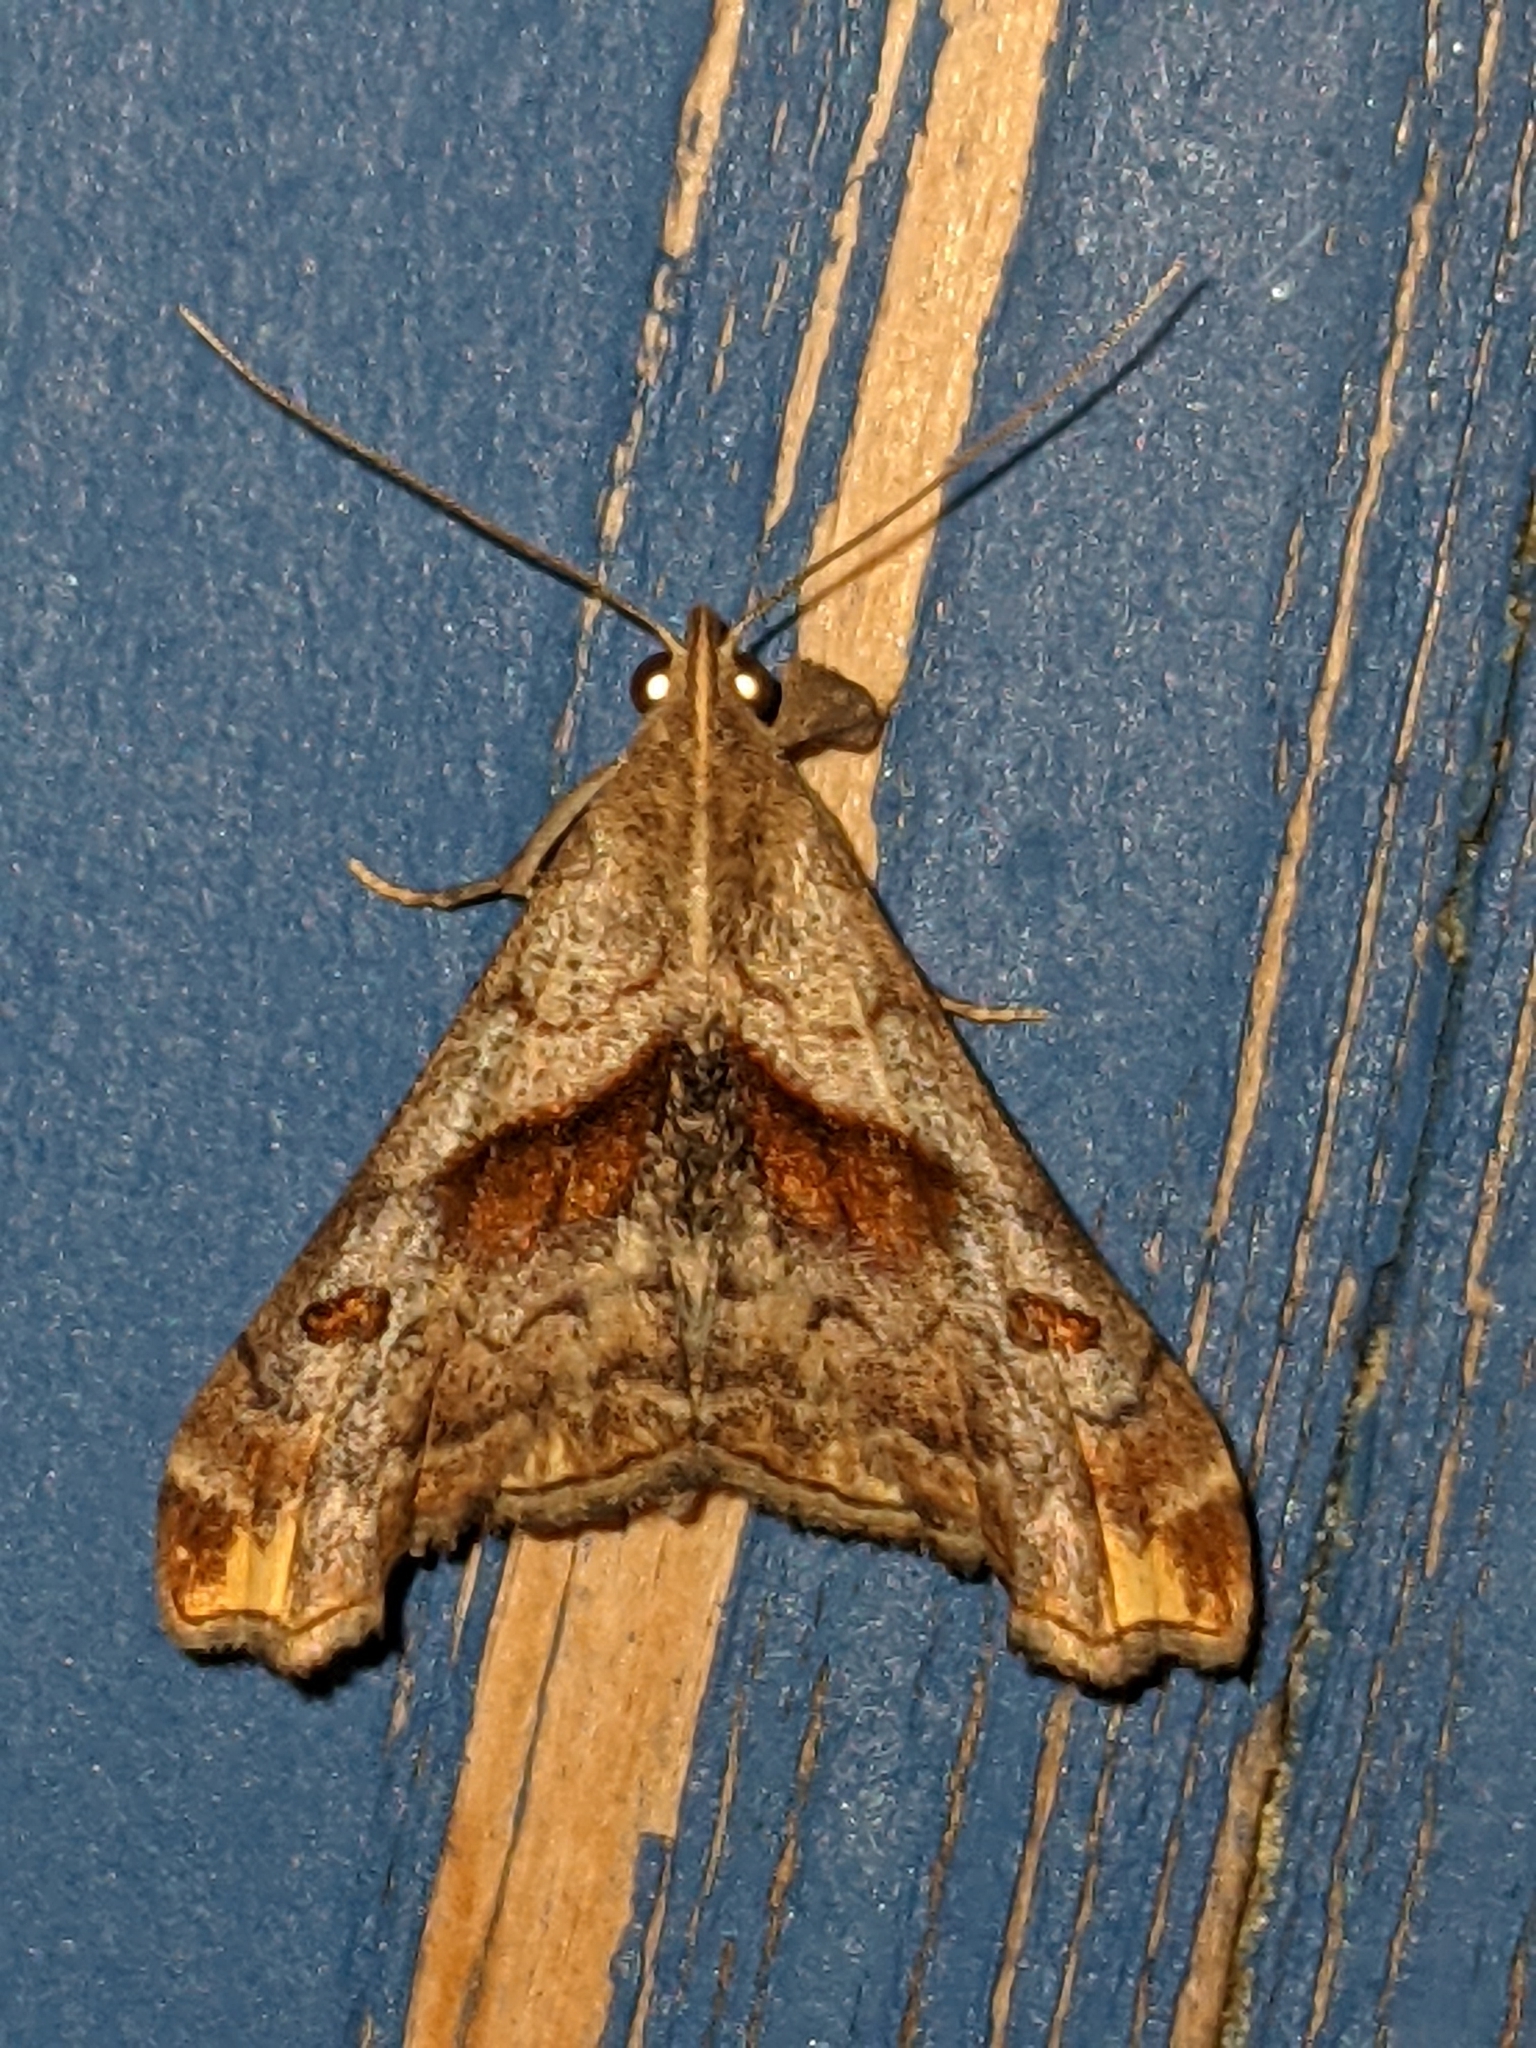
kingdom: Animalia
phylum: Arthropoda
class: Insecta
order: Lepidoptera
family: Erebidae
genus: Palthis
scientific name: Palthis angulalis
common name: Dark-spotted palthis moth
